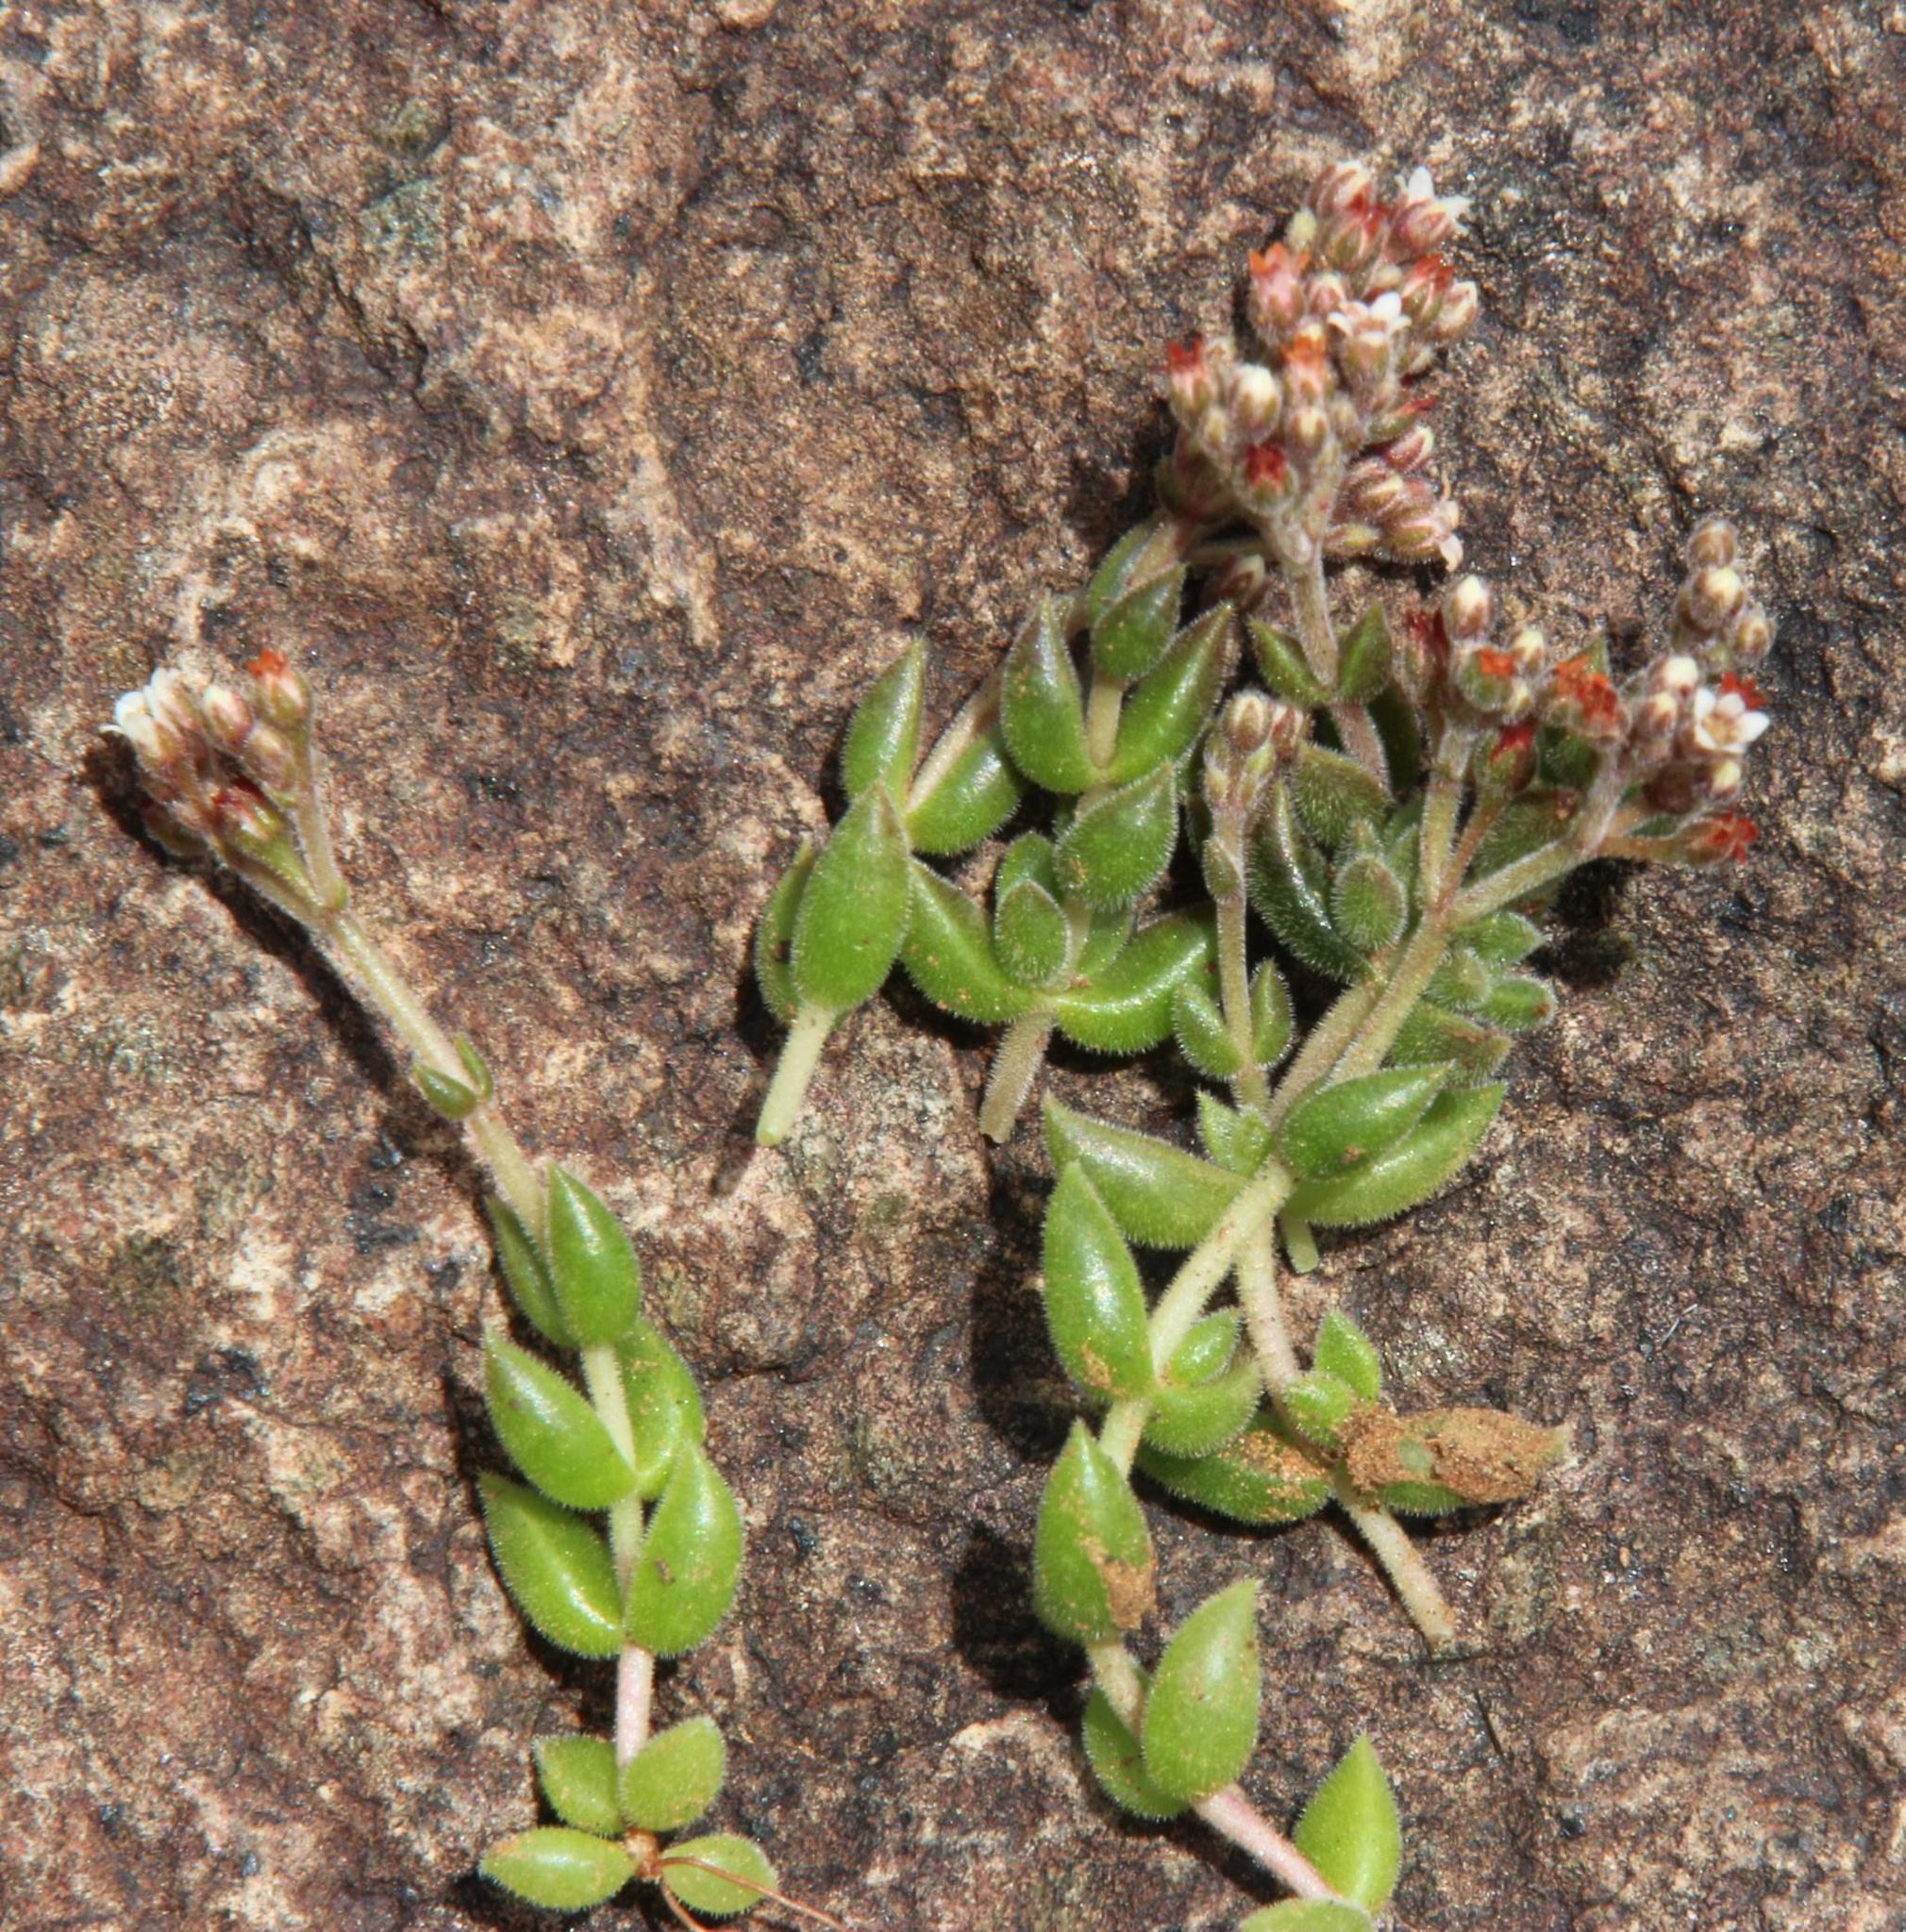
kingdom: Plantae
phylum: Tracheophyta
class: Magnoliopsida
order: Saxifragales
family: Crassulaceae
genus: Crassula
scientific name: Crassula lanuginosa
